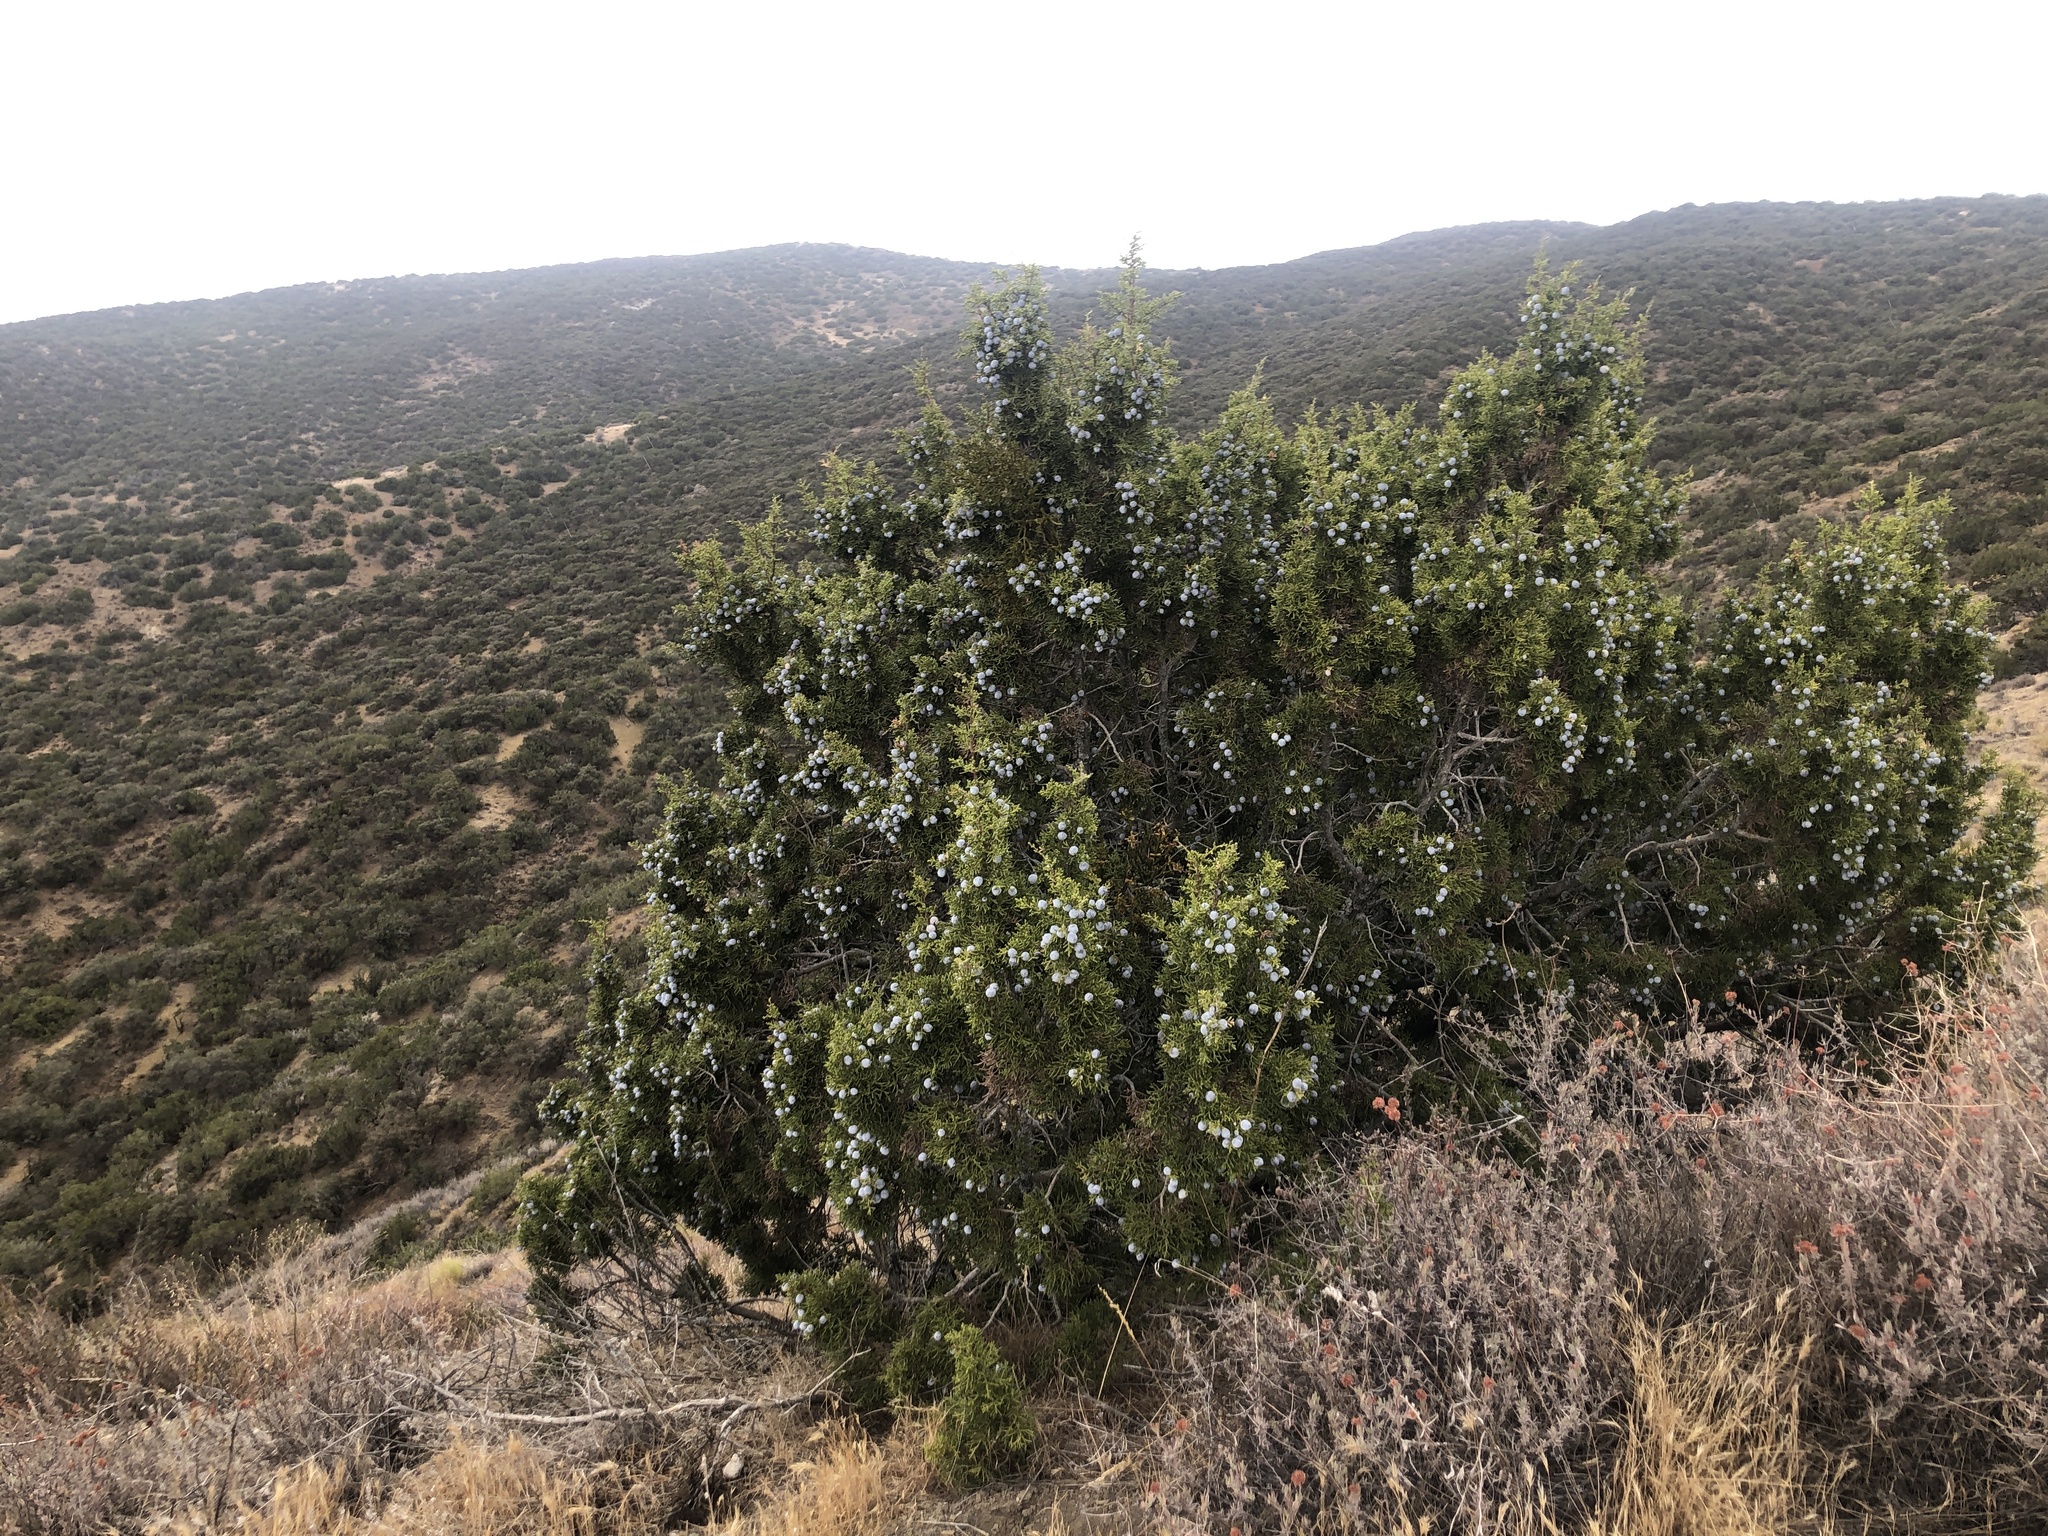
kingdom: Plantae
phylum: Tracheophyta
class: Pinopsida
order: Pinales
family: Cupressaceae
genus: Juniperus
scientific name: Juniperus californica
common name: California juniper
